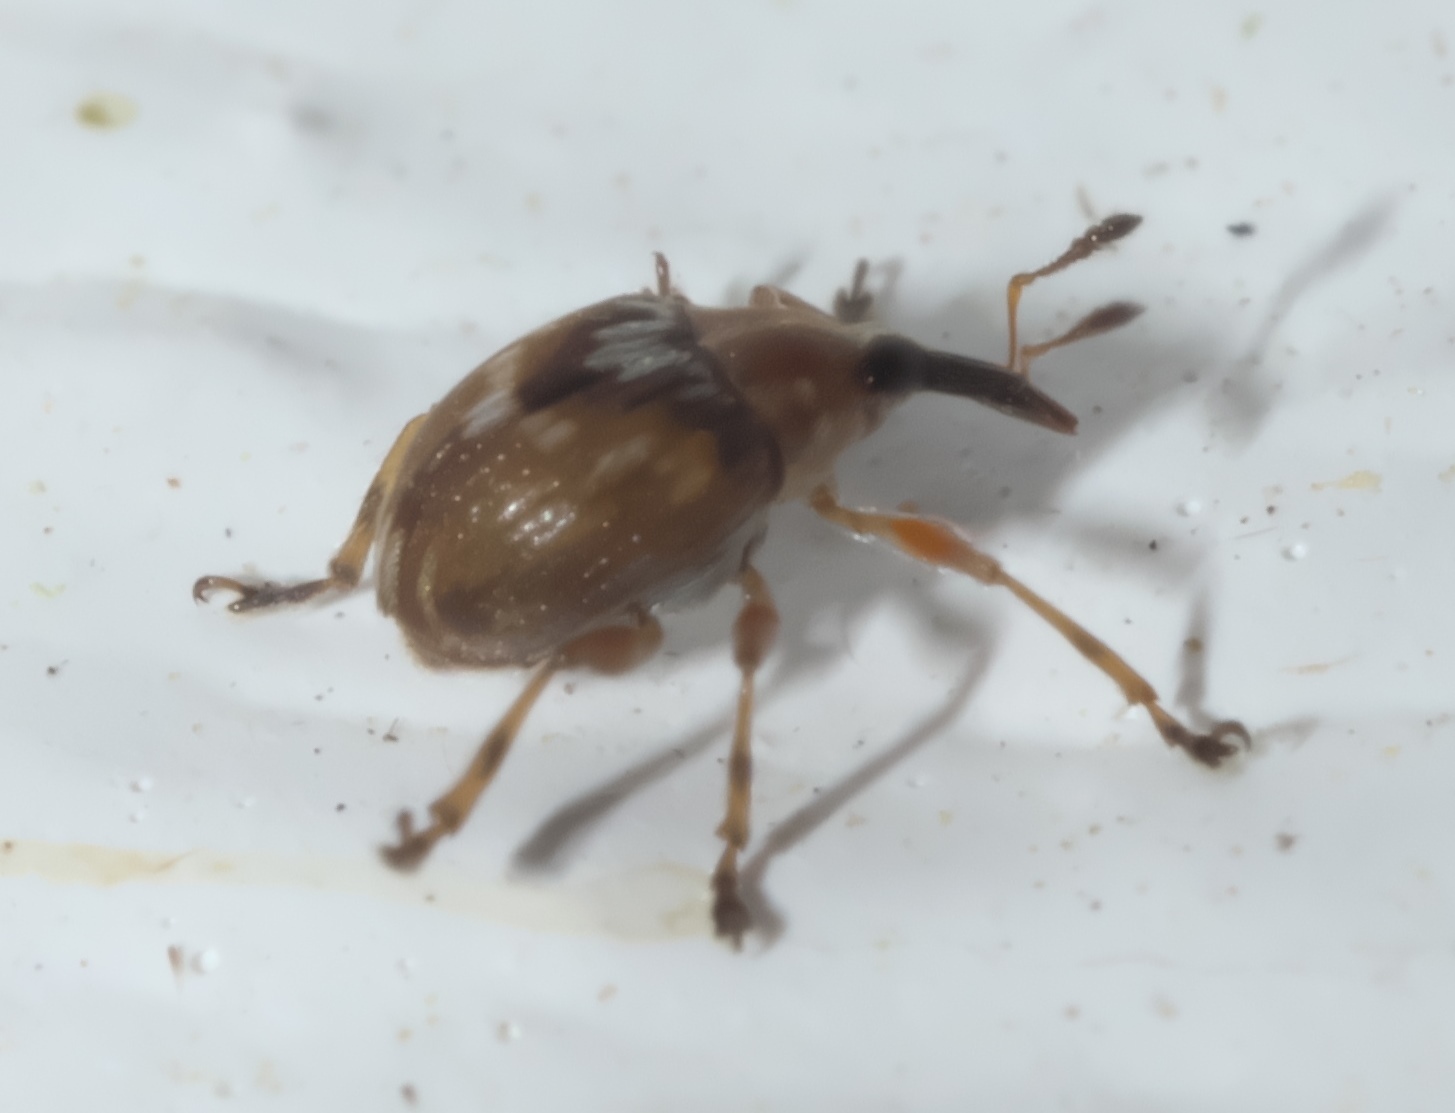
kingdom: Animalia
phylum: Arthropoda
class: Insecta
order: Coleoptera
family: Brentidae
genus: Nanodactylus
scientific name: Nanodactylus
